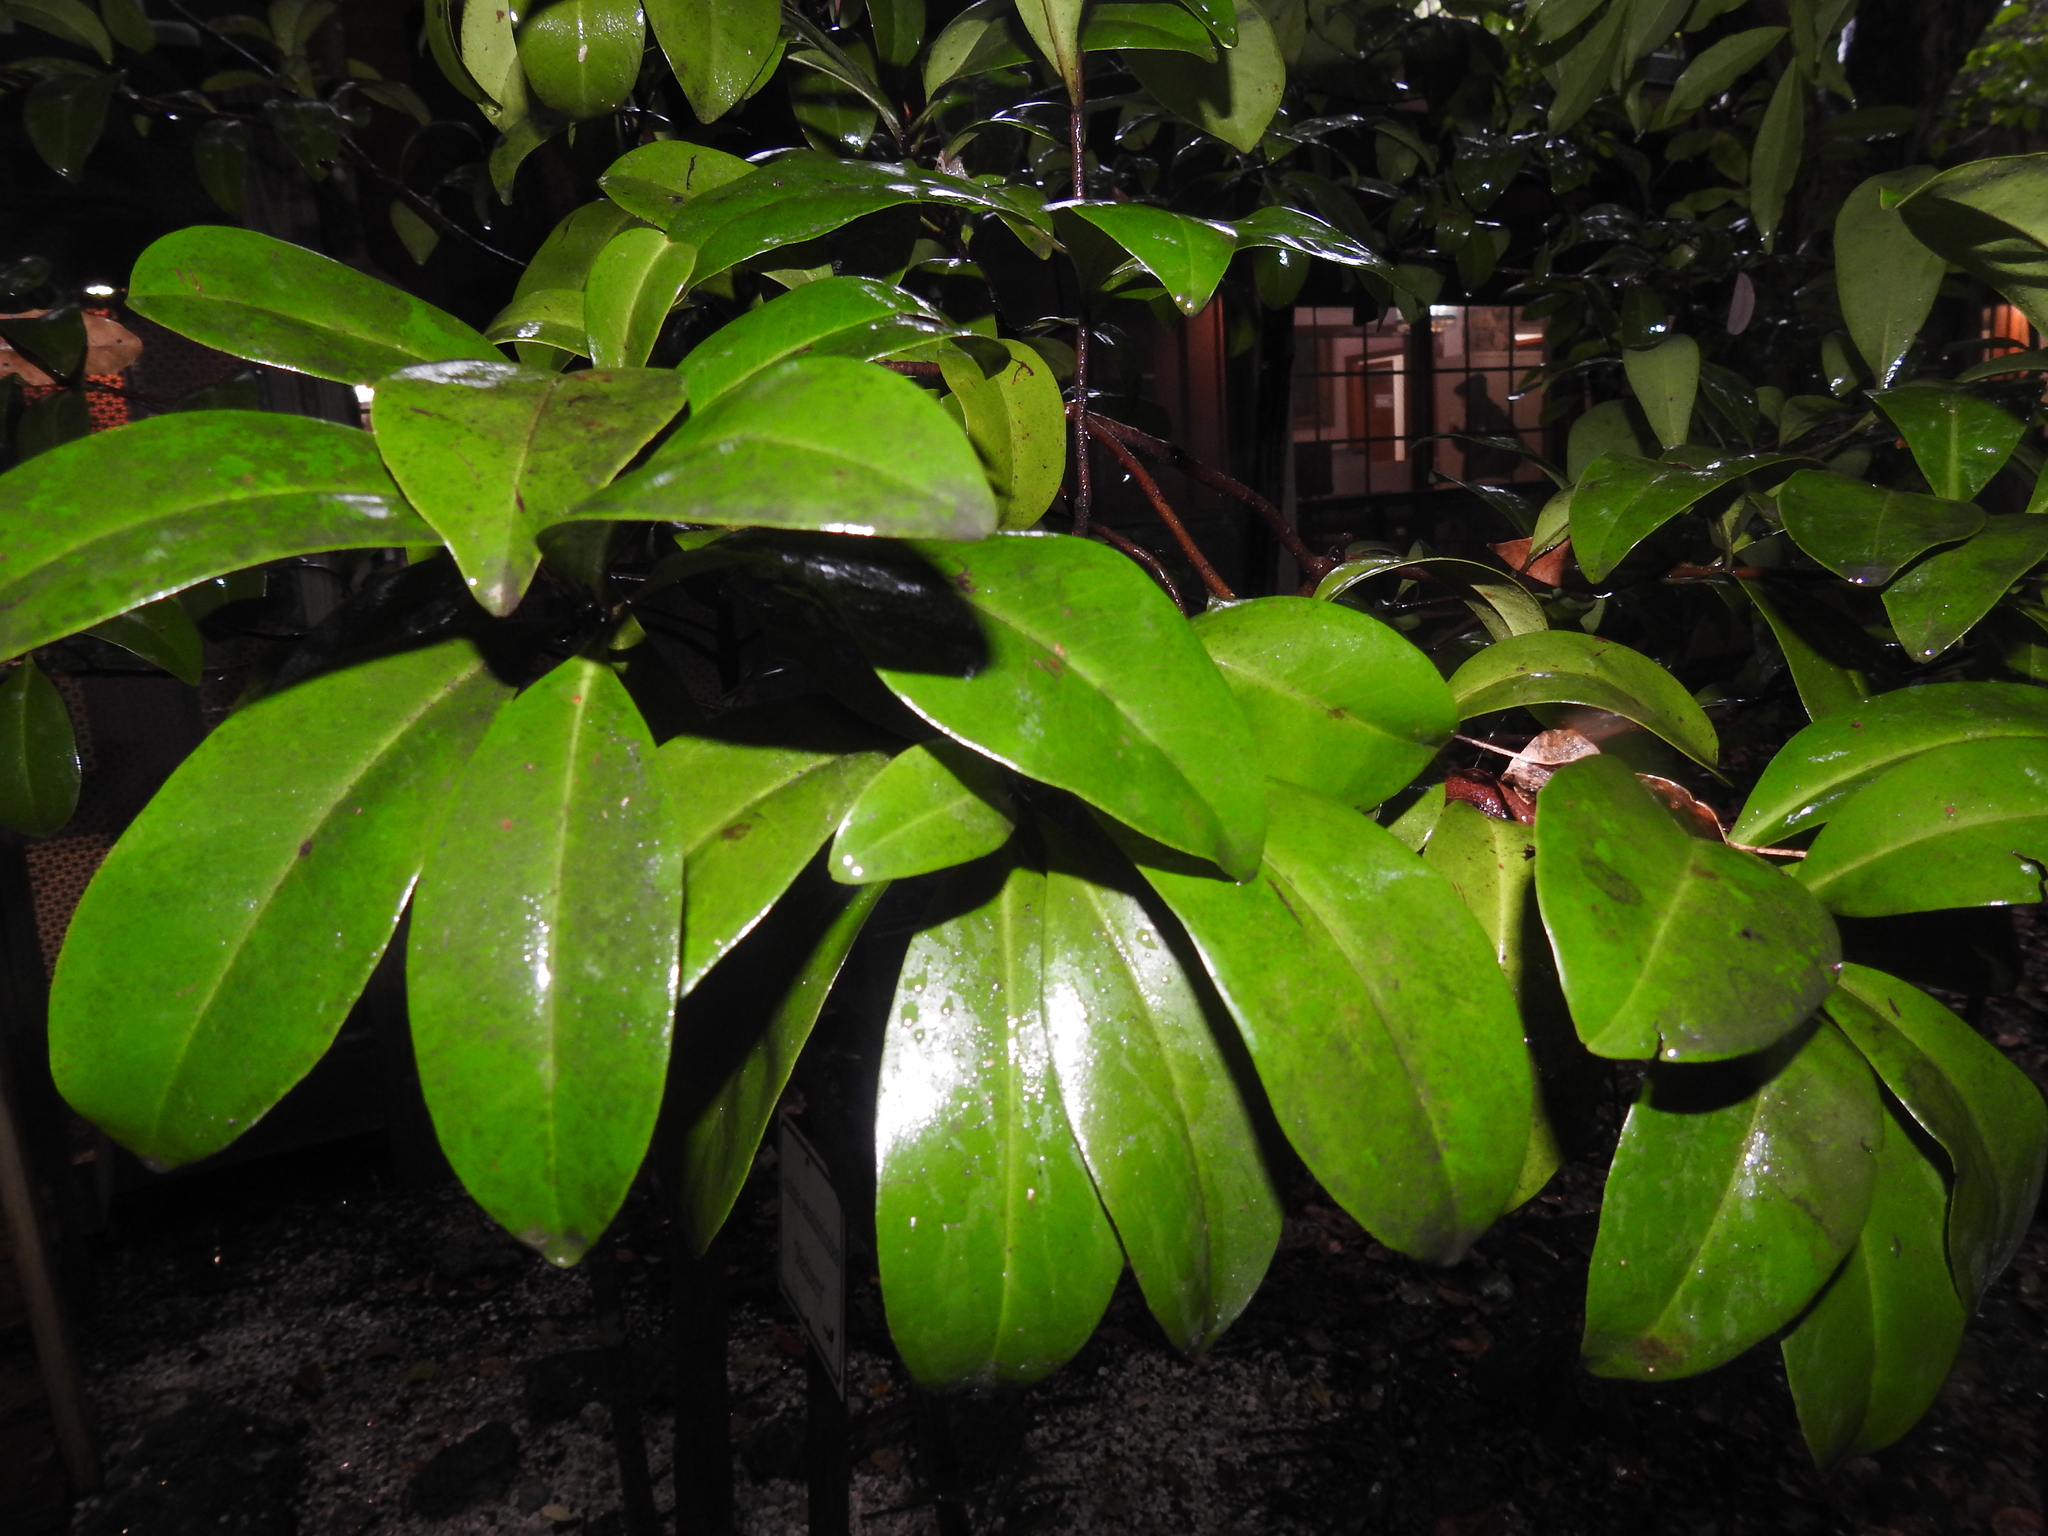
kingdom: Plantae
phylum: Tracheophyta
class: Magnoliopsida
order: Ericales
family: Primulaceae
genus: Ardisia
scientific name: Ardisia escallonioides
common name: Island marlberry
